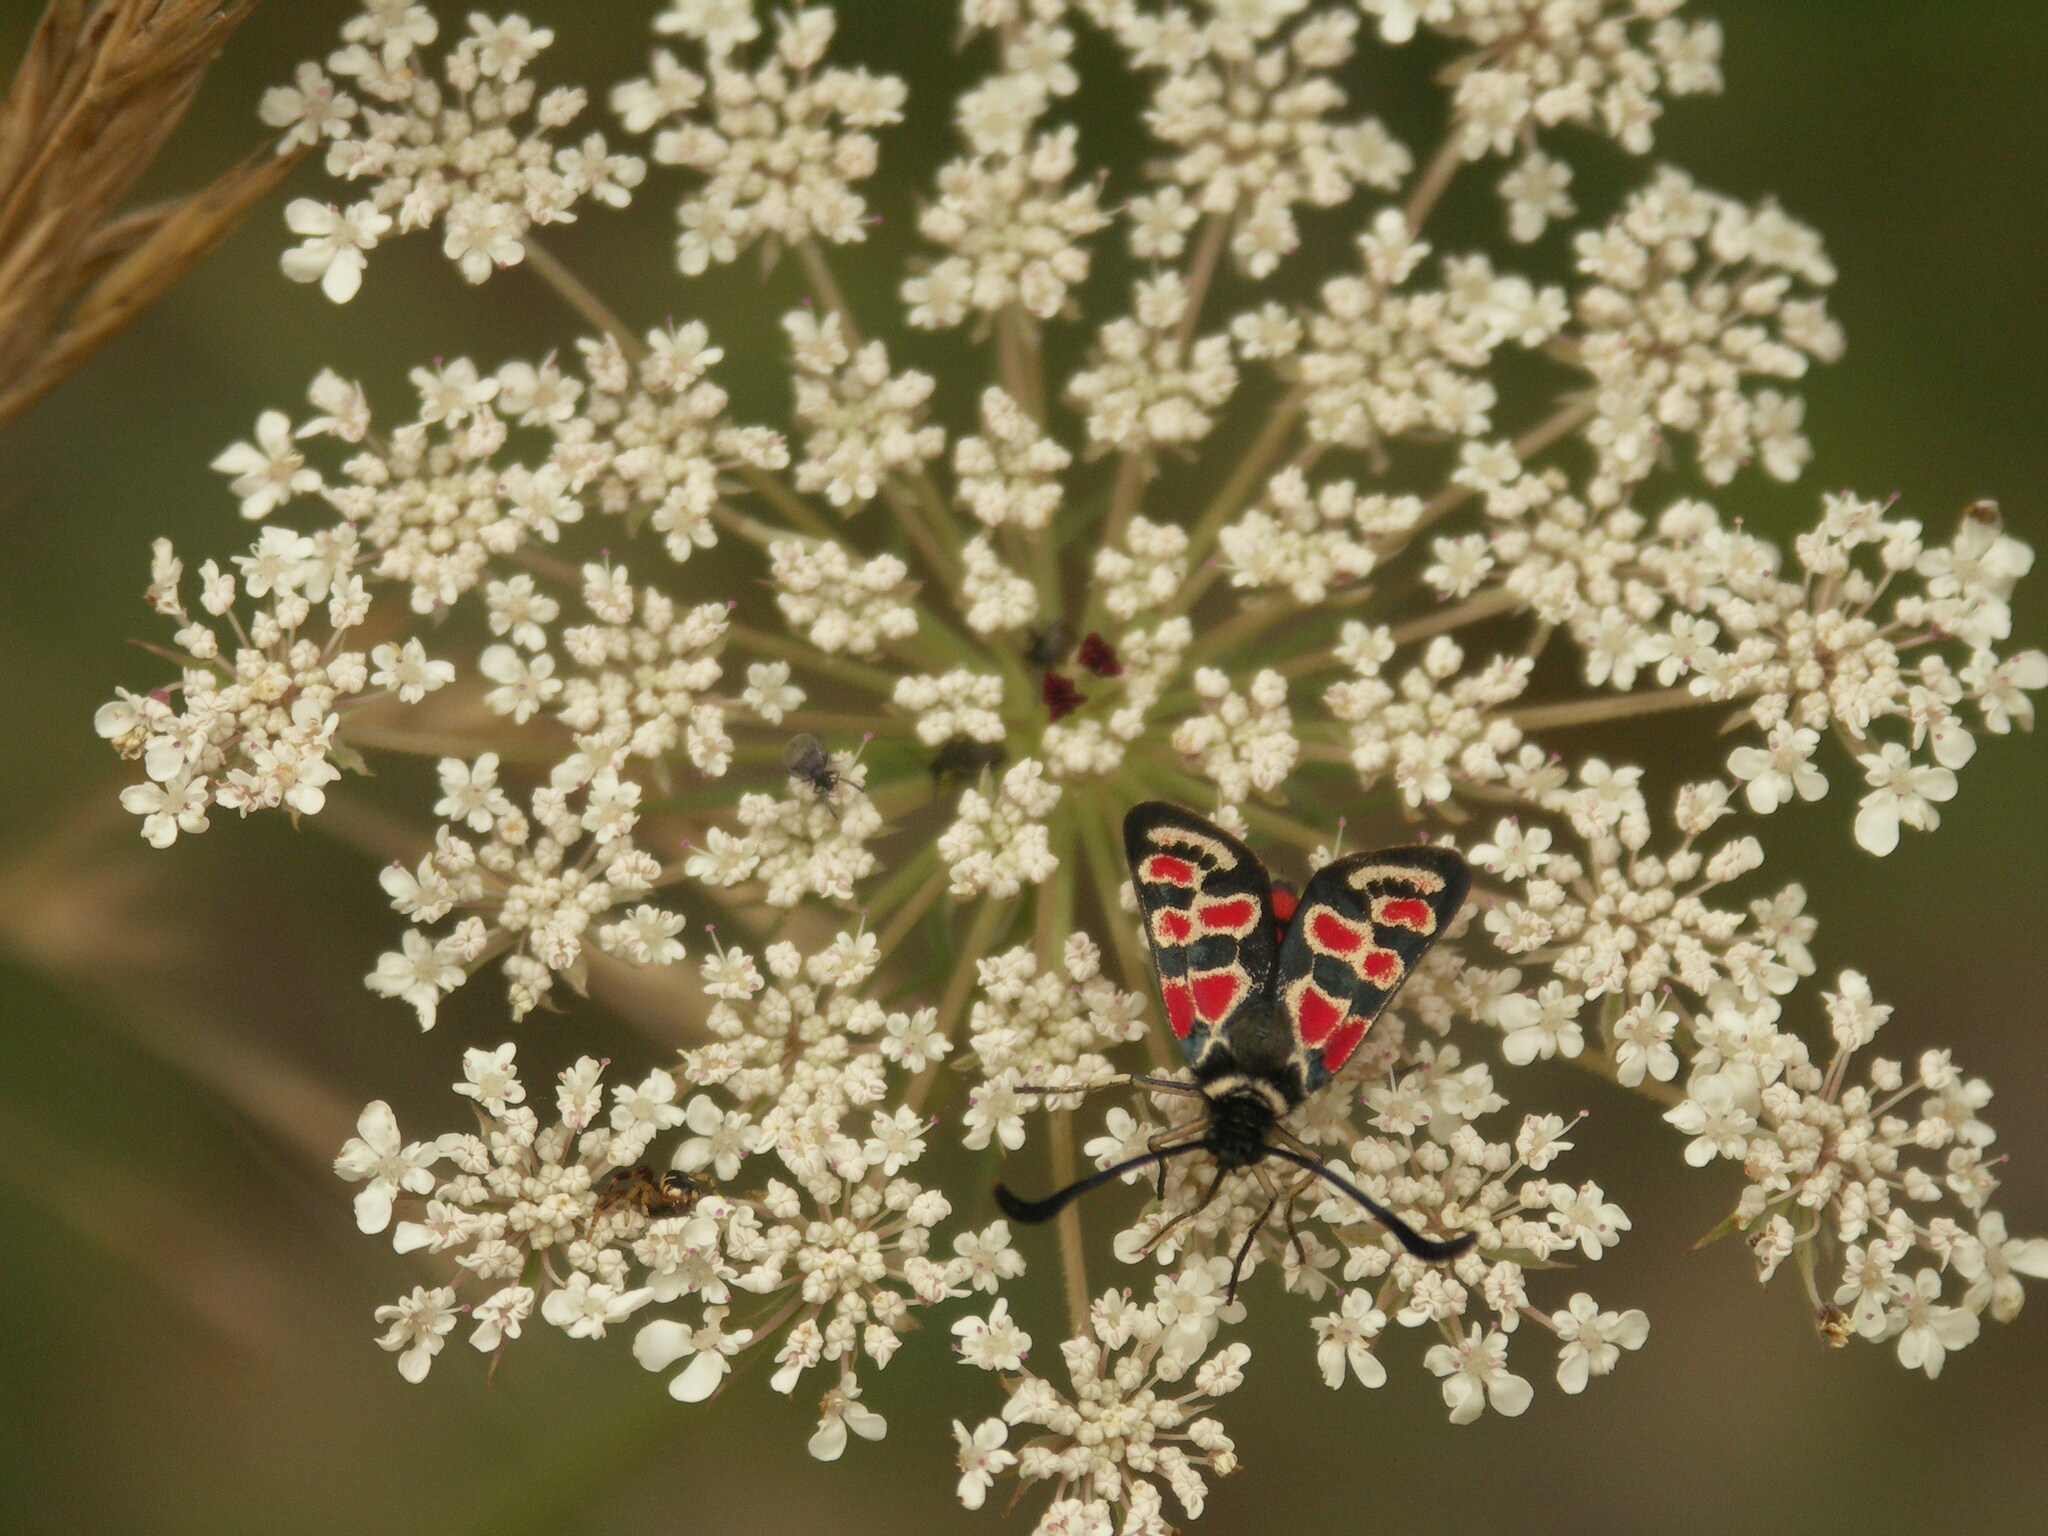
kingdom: Animalia
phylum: Arthropoda
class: Insecta
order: Lepidoptera
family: Zygaenidae
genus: Zygaena
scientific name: Zygaena occitanica
